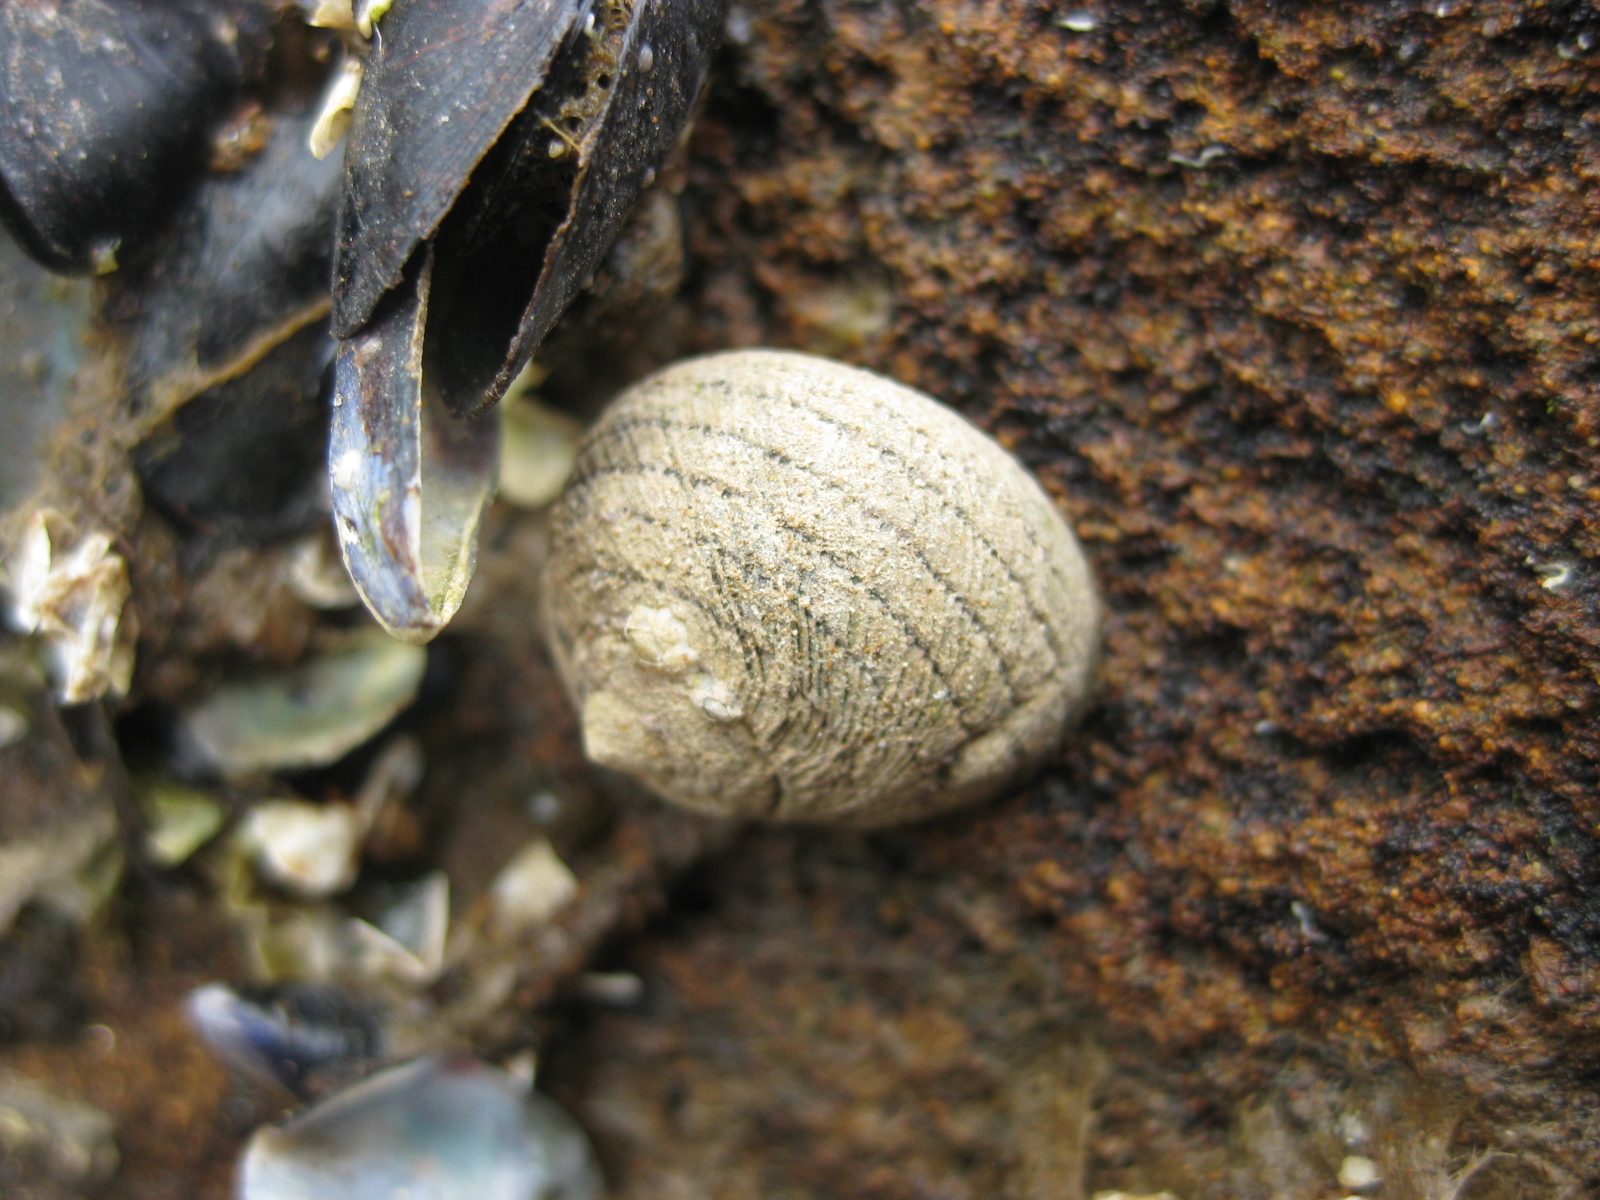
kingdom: Animalia
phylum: Mollusca
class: Gastropoda
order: Trochida
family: Trochidae
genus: Diloma
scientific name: Diloma aethiops
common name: Scorched monodont
